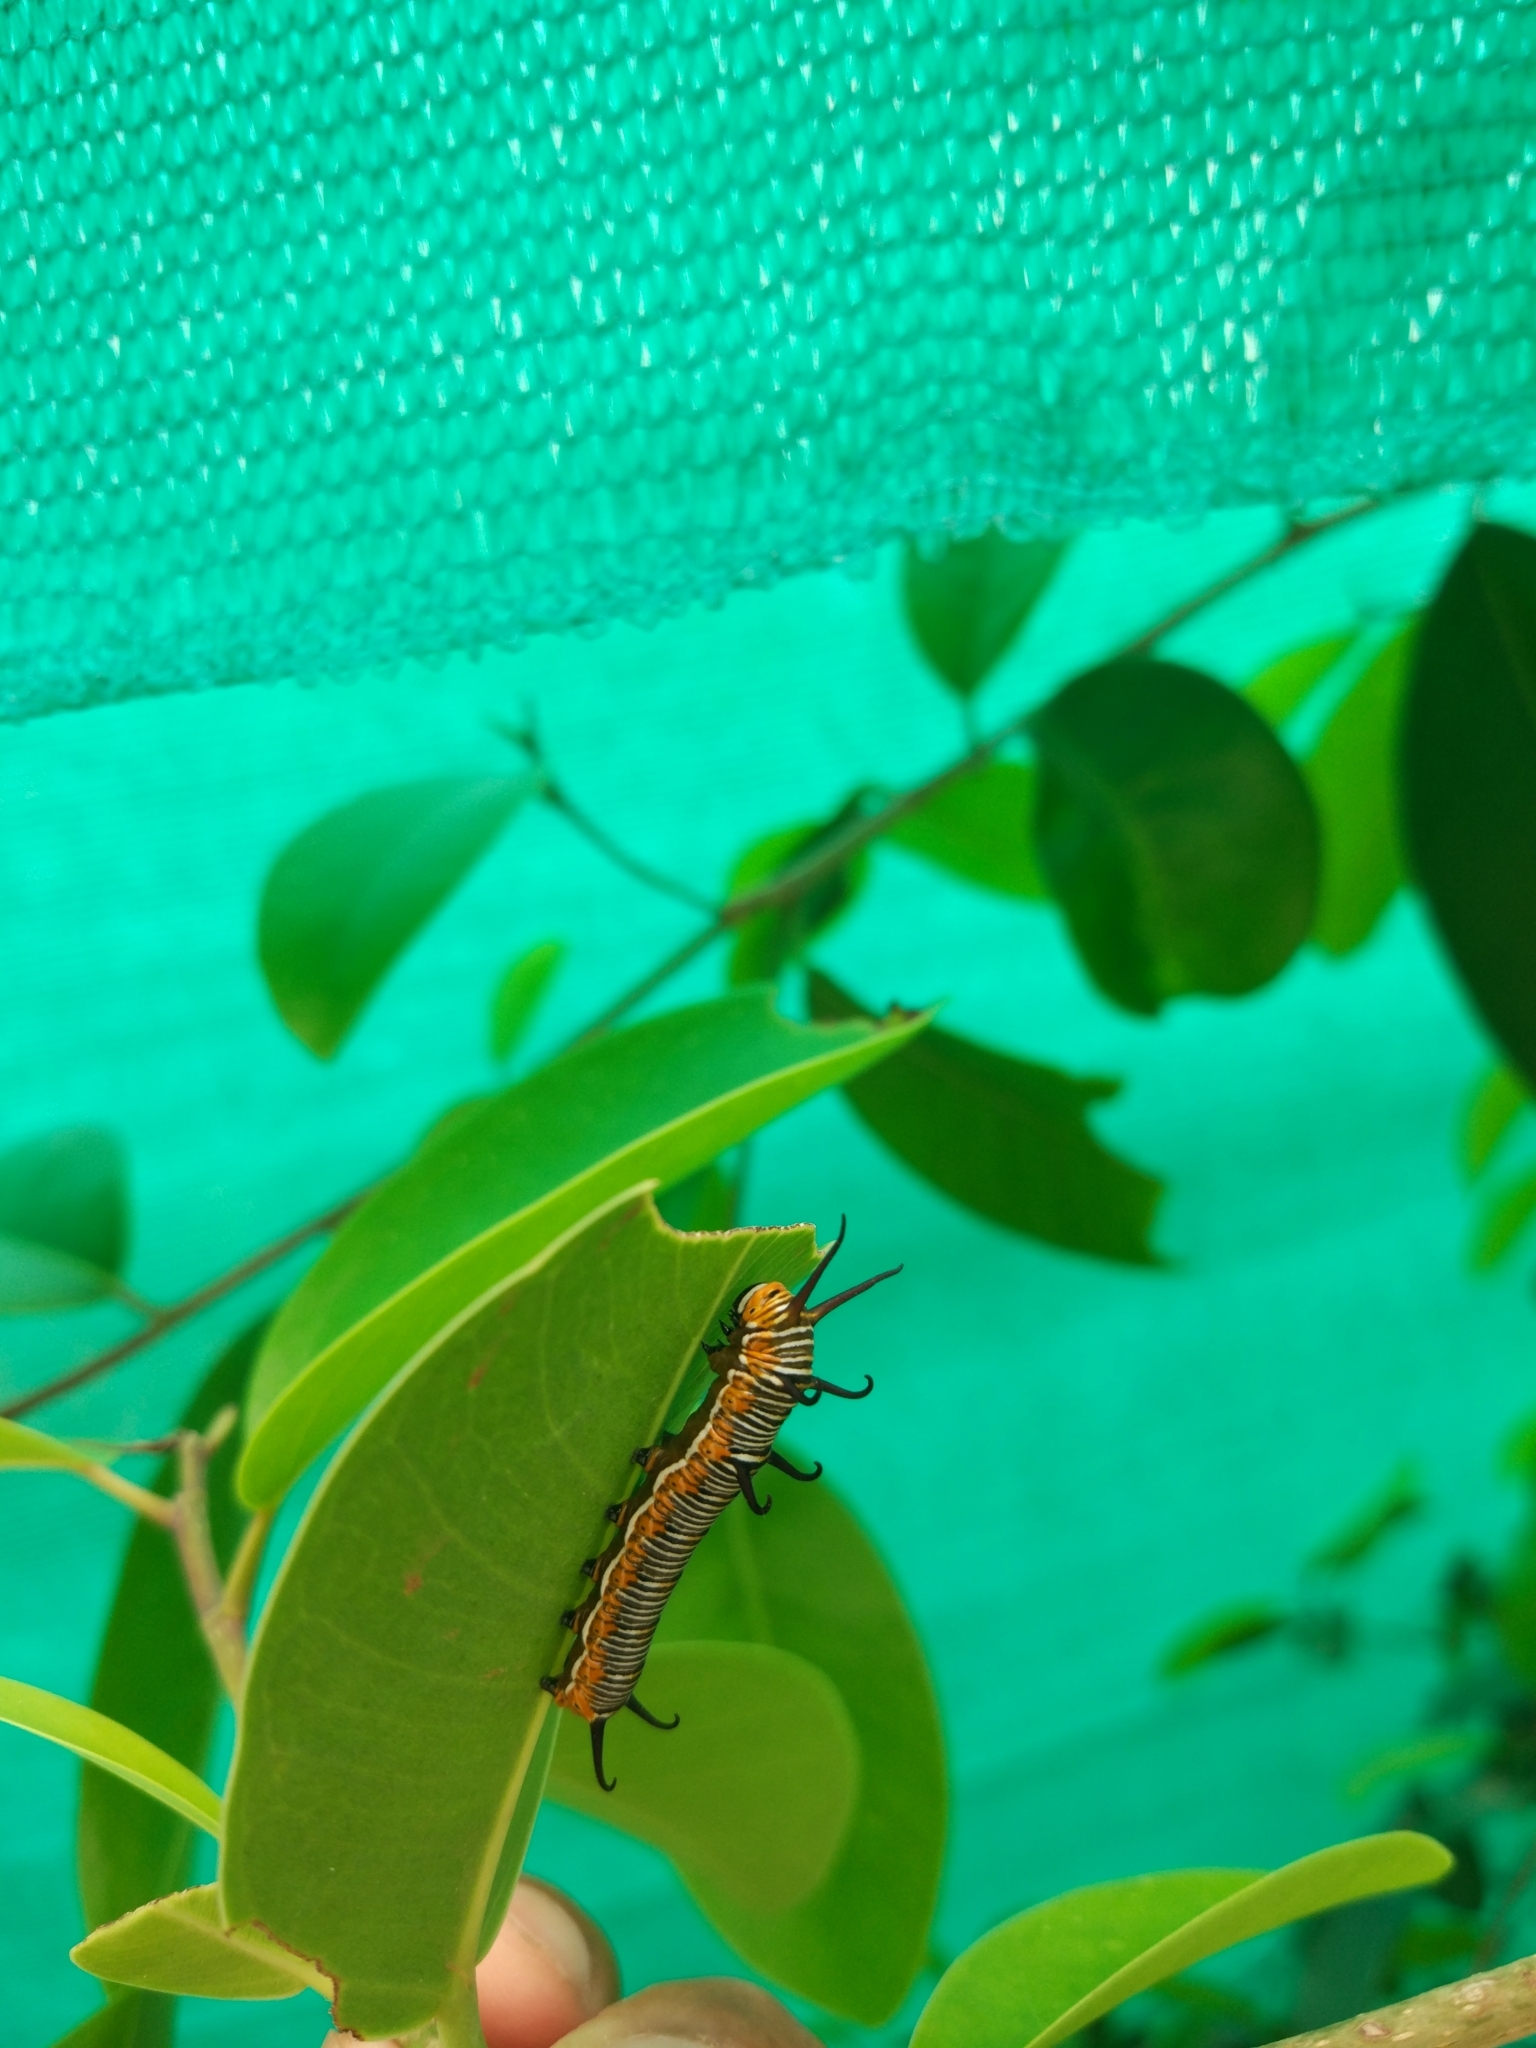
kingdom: Animalia
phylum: Arthropoda
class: Insecta
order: Lepidoptera
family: Nymphalidae
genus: Euploea
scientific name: Euploea core
